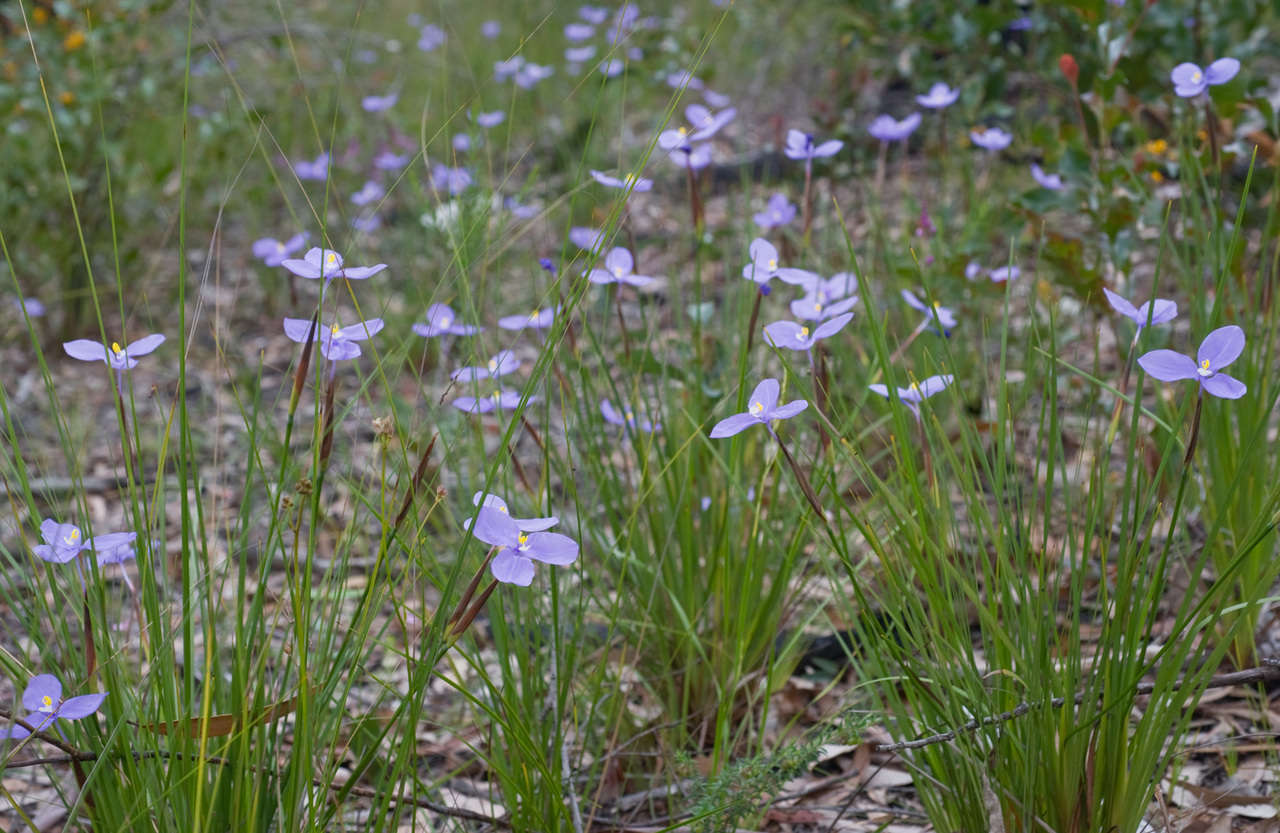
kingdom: Plantae
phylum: Tracheophyta
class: Liliopsida
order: Asparagales
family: Iridaceae
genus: Patersonia
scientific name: Patersonia glabrata
